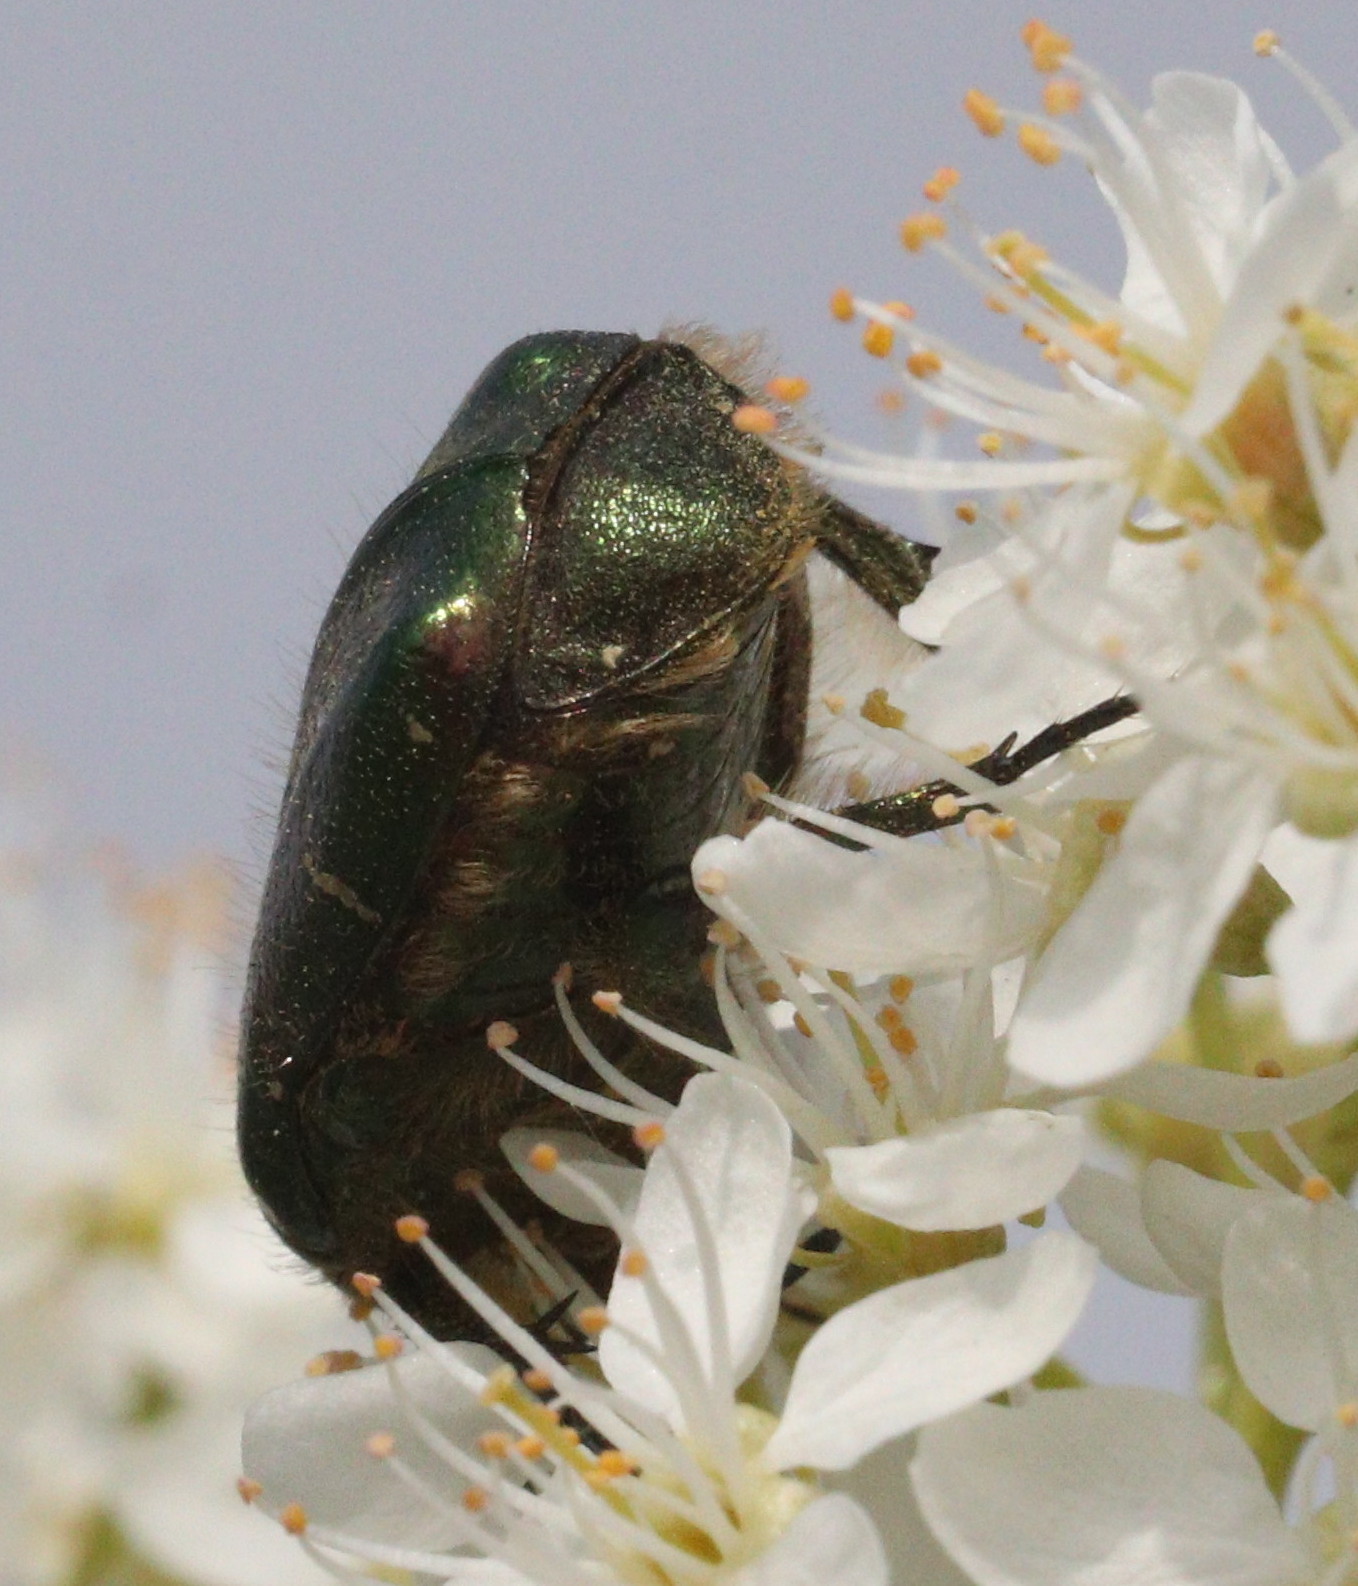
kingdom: Animalia
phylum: Arthropoda
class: Insecta
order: Coleoptera
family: Scarabaeidae
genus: Cetonia
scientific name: Cetonia aurata
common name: Rose chafer
